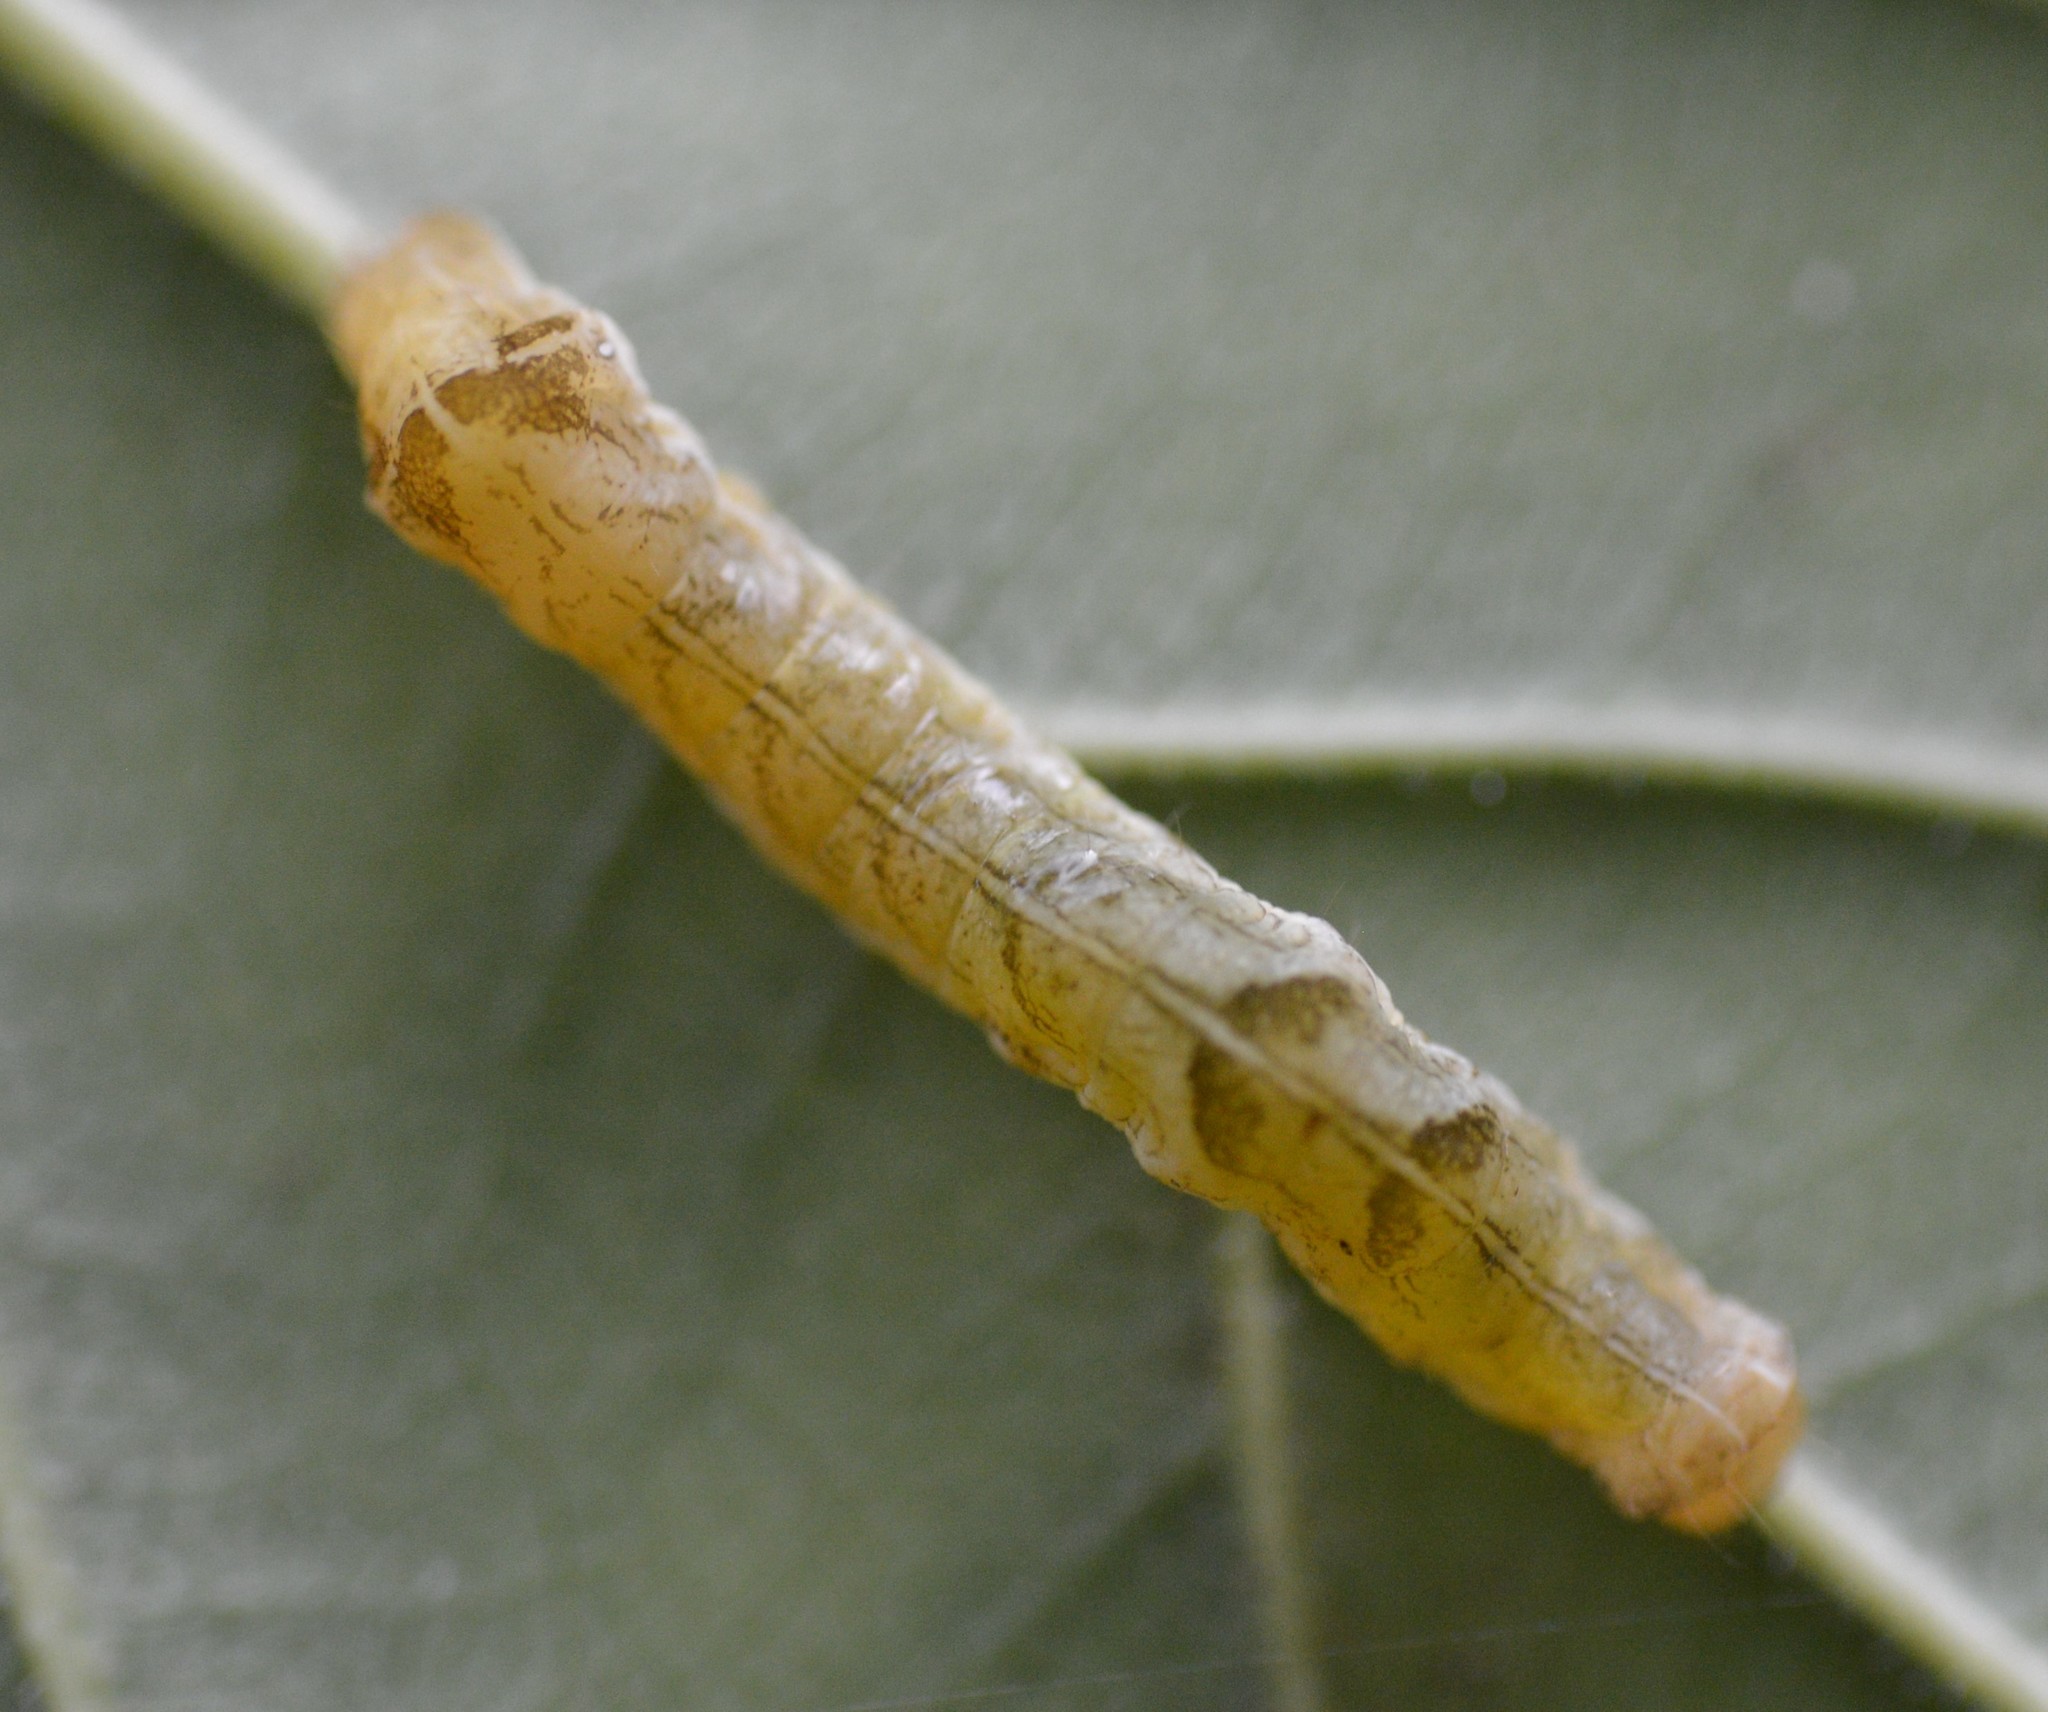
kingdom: Animalia
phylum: Arthropoda
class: Insecta
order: Lepidoptera
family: Noctuidae
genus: Melanchra
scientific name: Melanchra adjuncta
